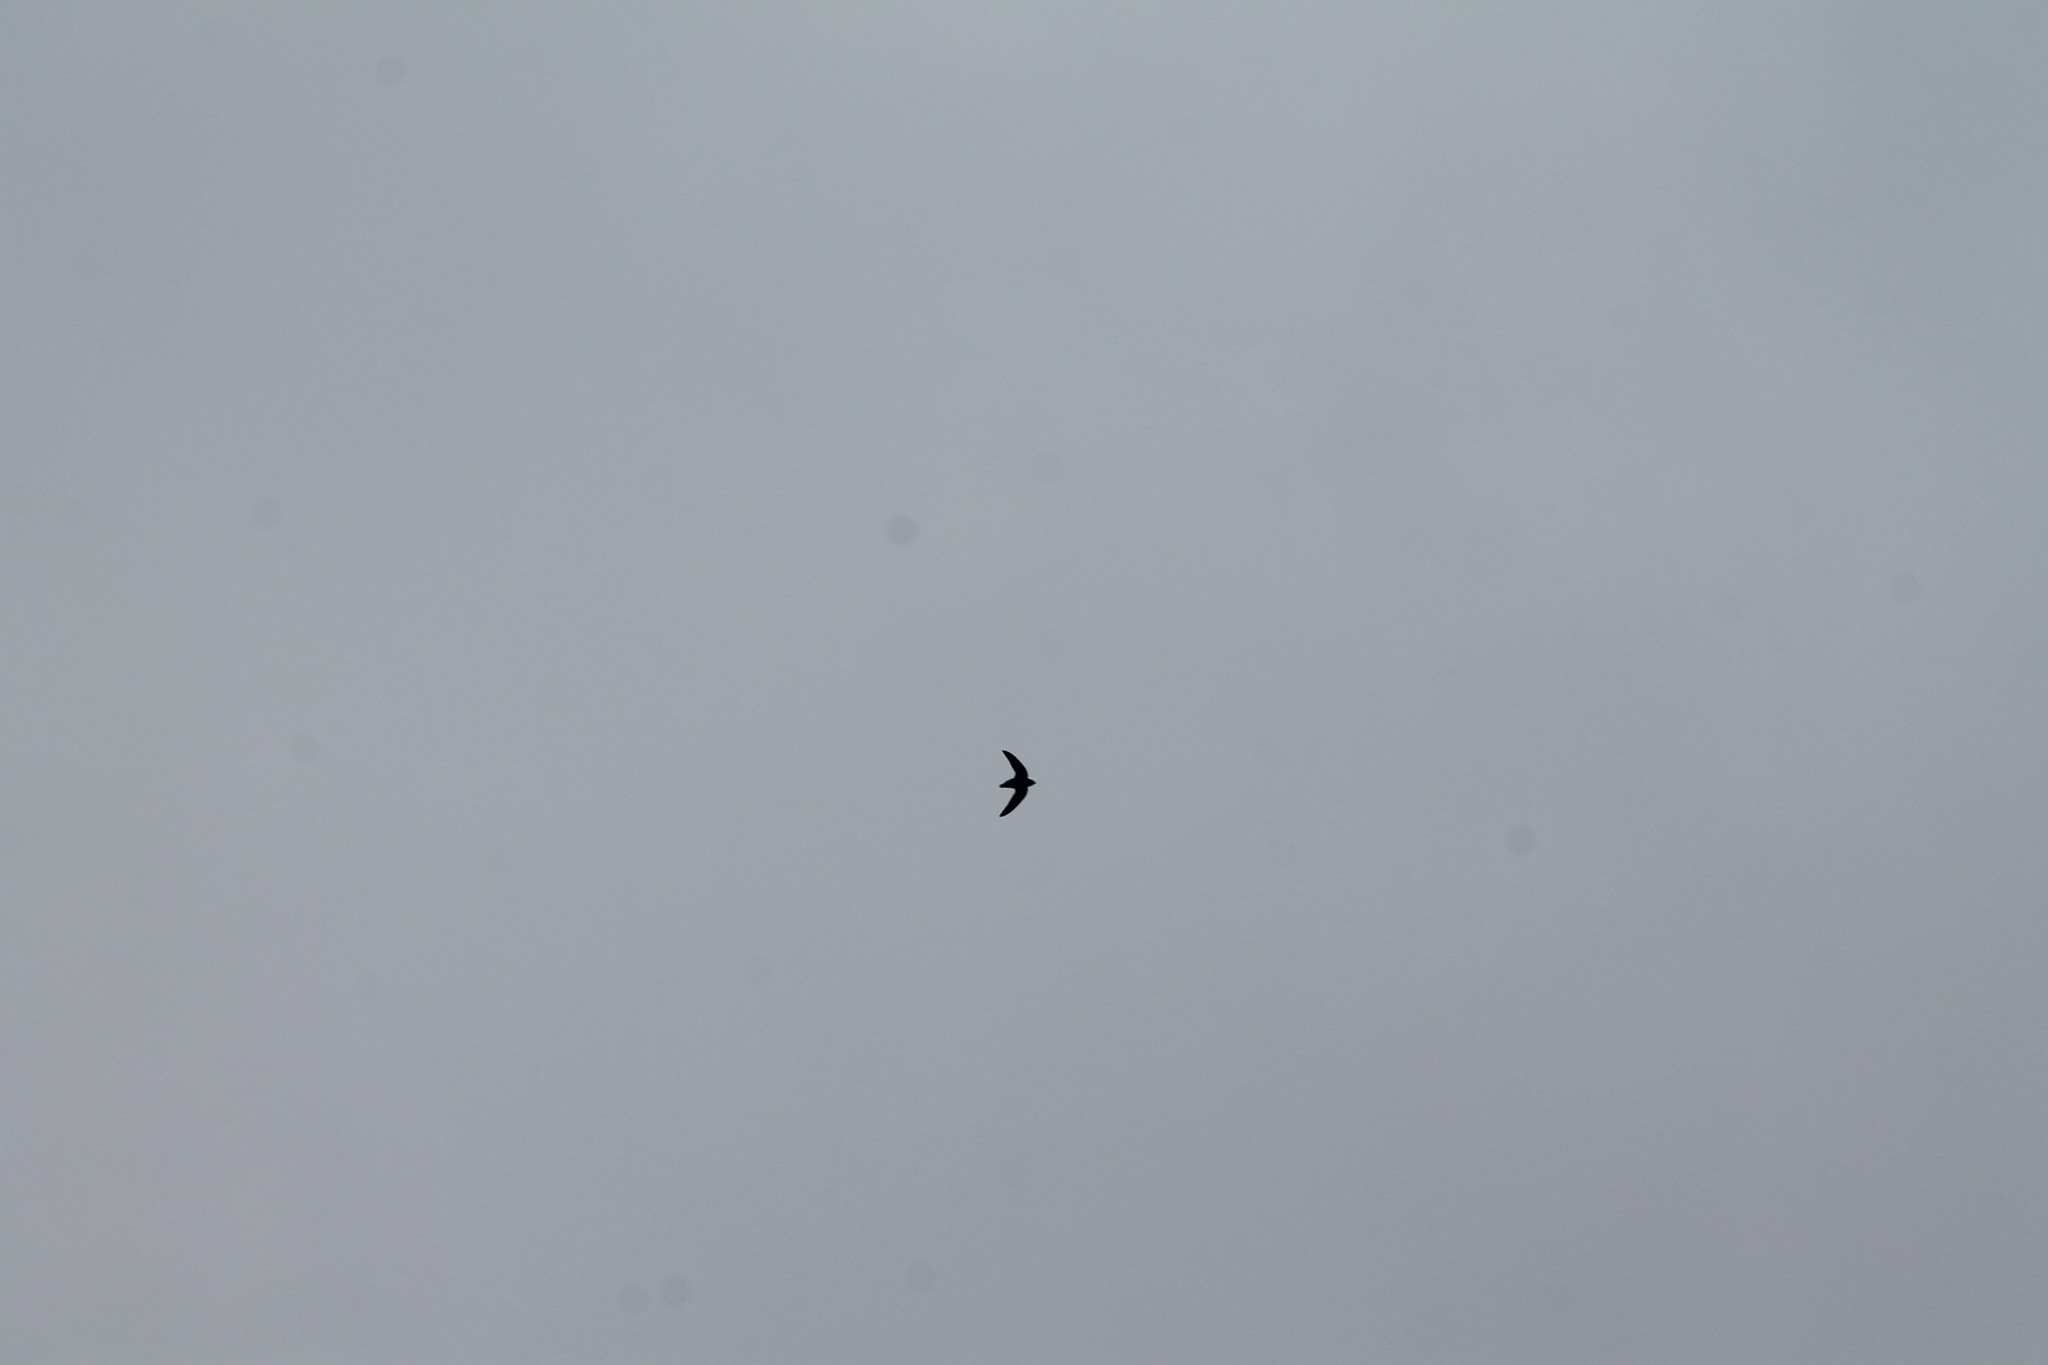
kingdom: Animalia
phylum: Chordata
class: Aves
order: Apodiformes
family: Apodidae
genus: Chaetura
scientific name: Chaetura pelagica
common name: Chimney swift
